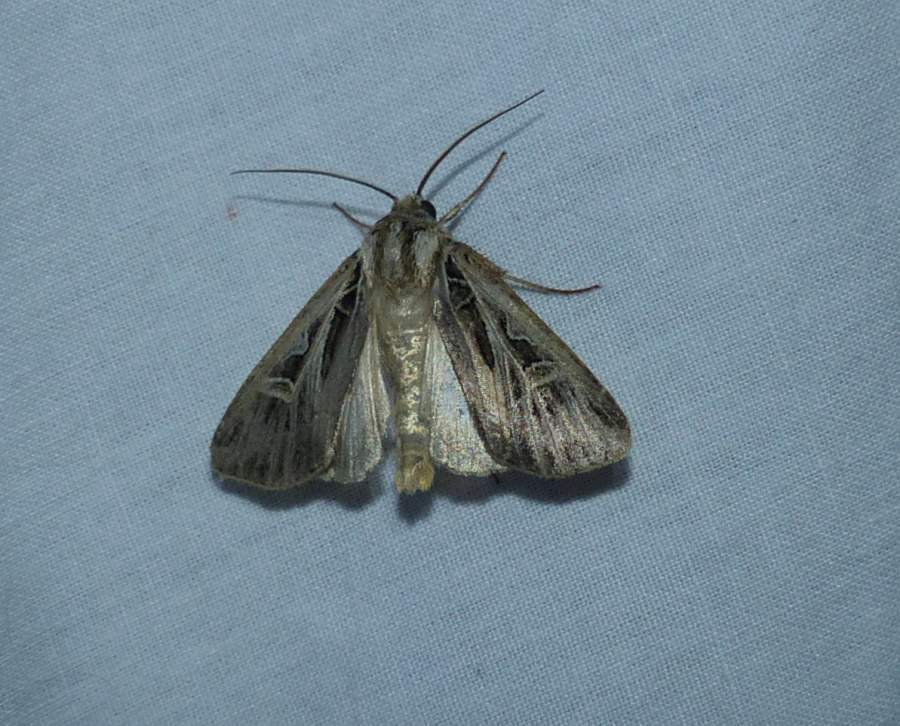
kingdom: Animalia
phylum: Arthropoda
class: Insecta
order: Lepidoptera
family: Noctuidae
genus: Feltia
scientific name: Feltia jaculifera
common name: Dingy cutworm moth
